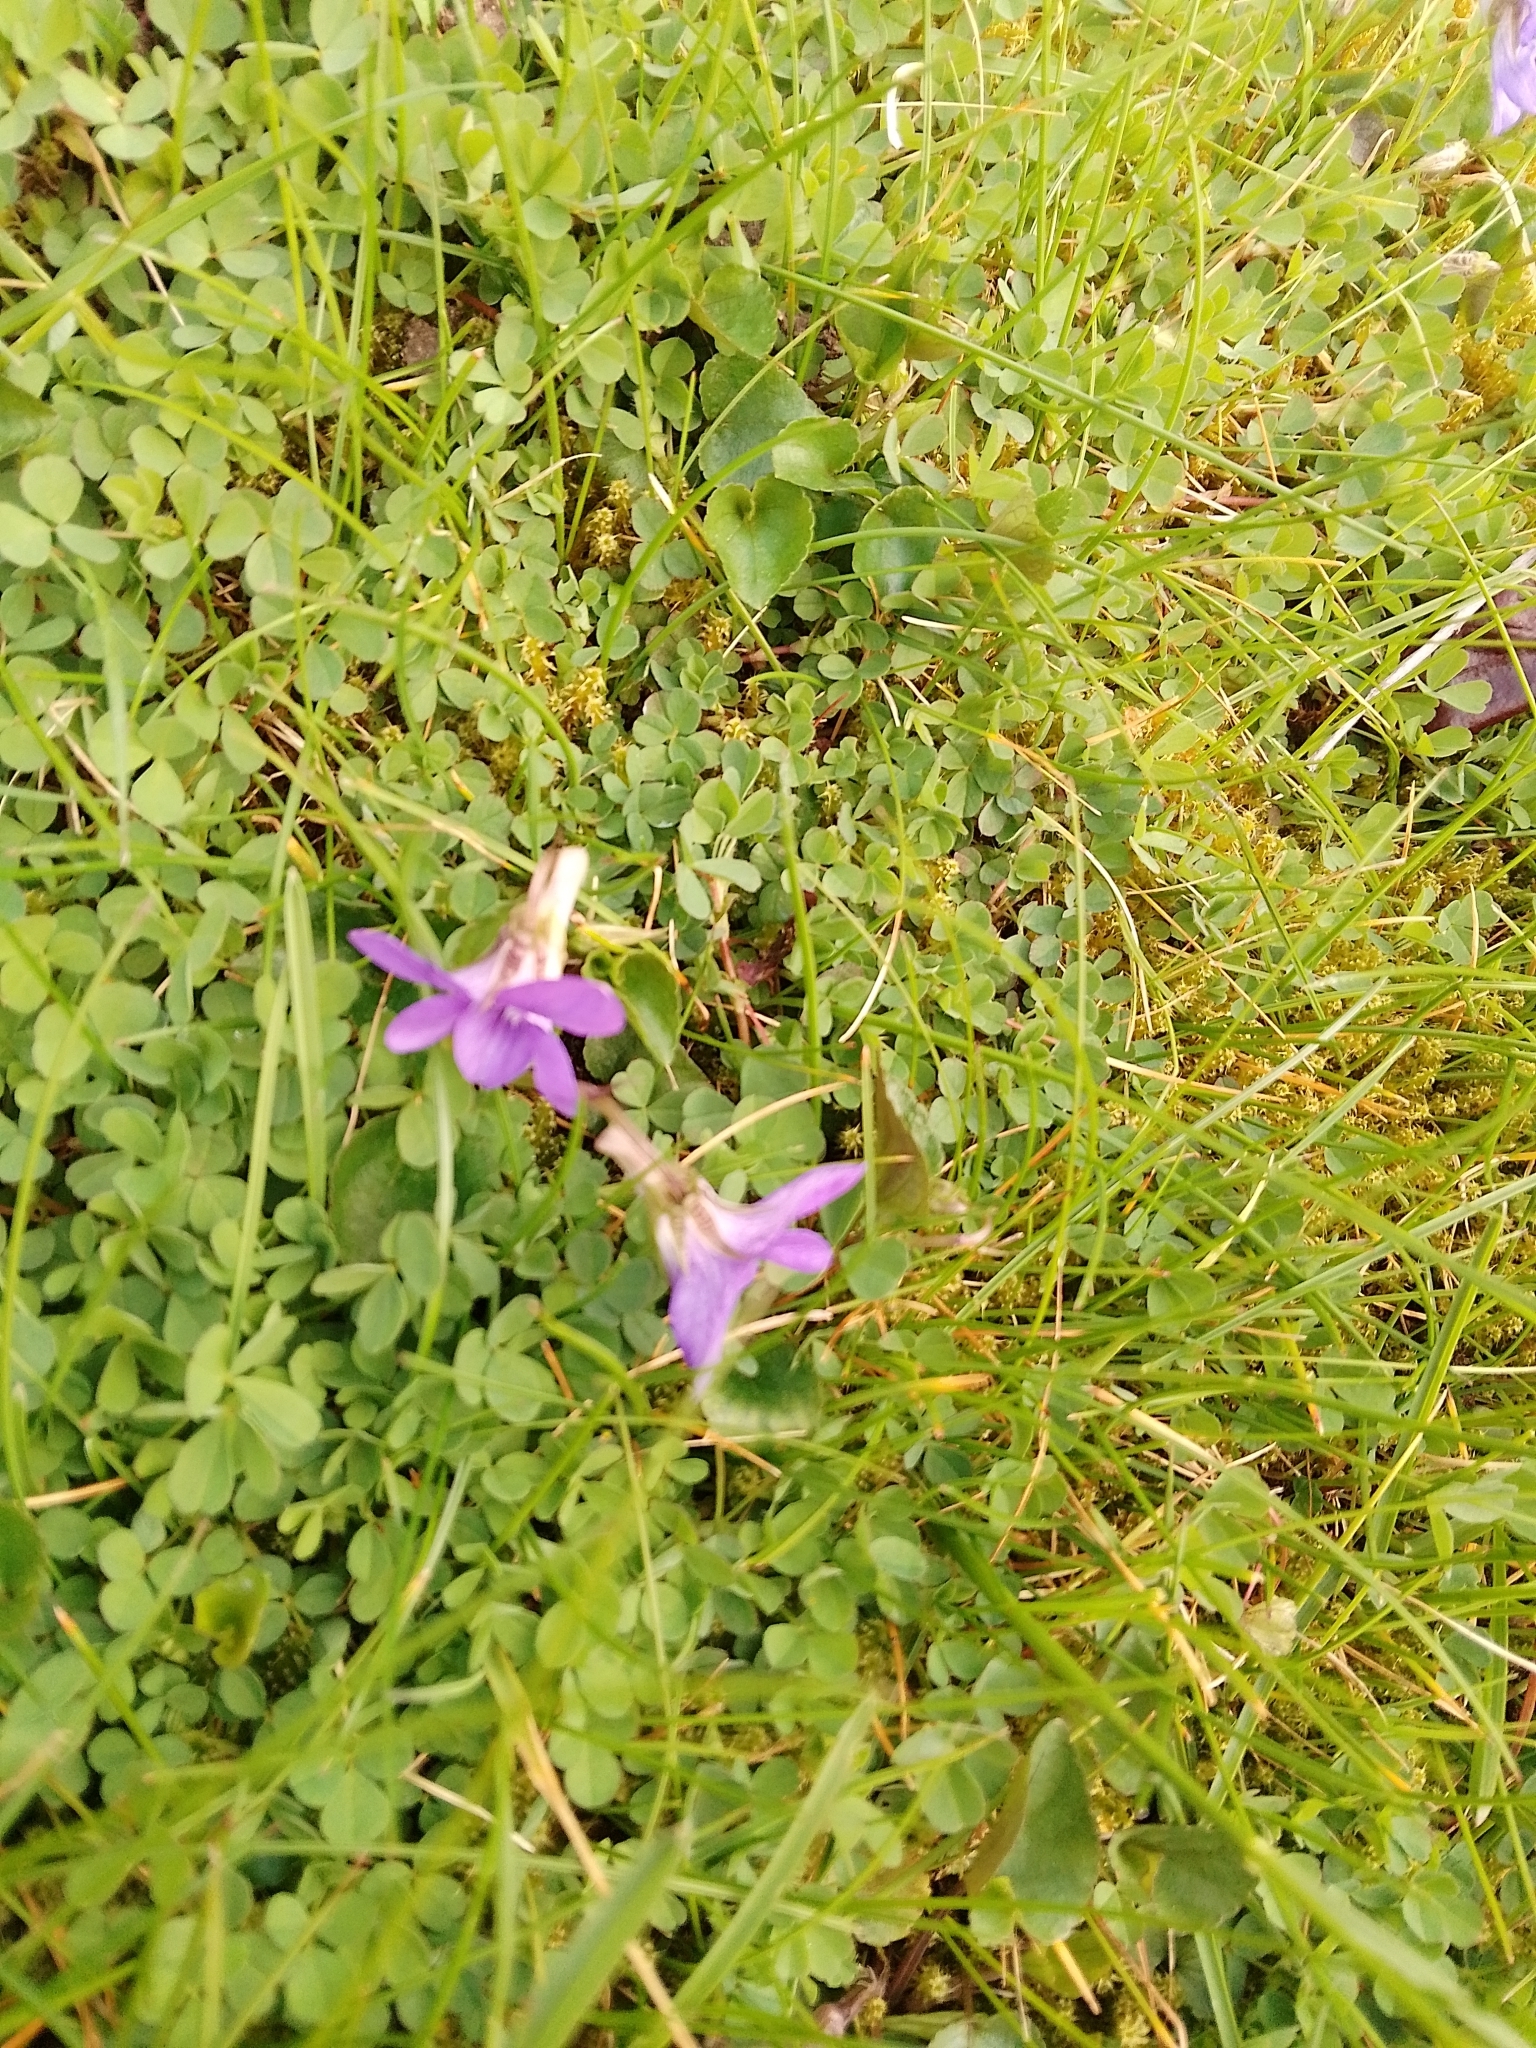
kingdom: Plantae
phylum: Tracheophyta
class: Magnoliopsida
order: Malpighiales
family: Violaceae
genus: Viola
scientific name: Viola riviniana
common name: Common dog-violet
